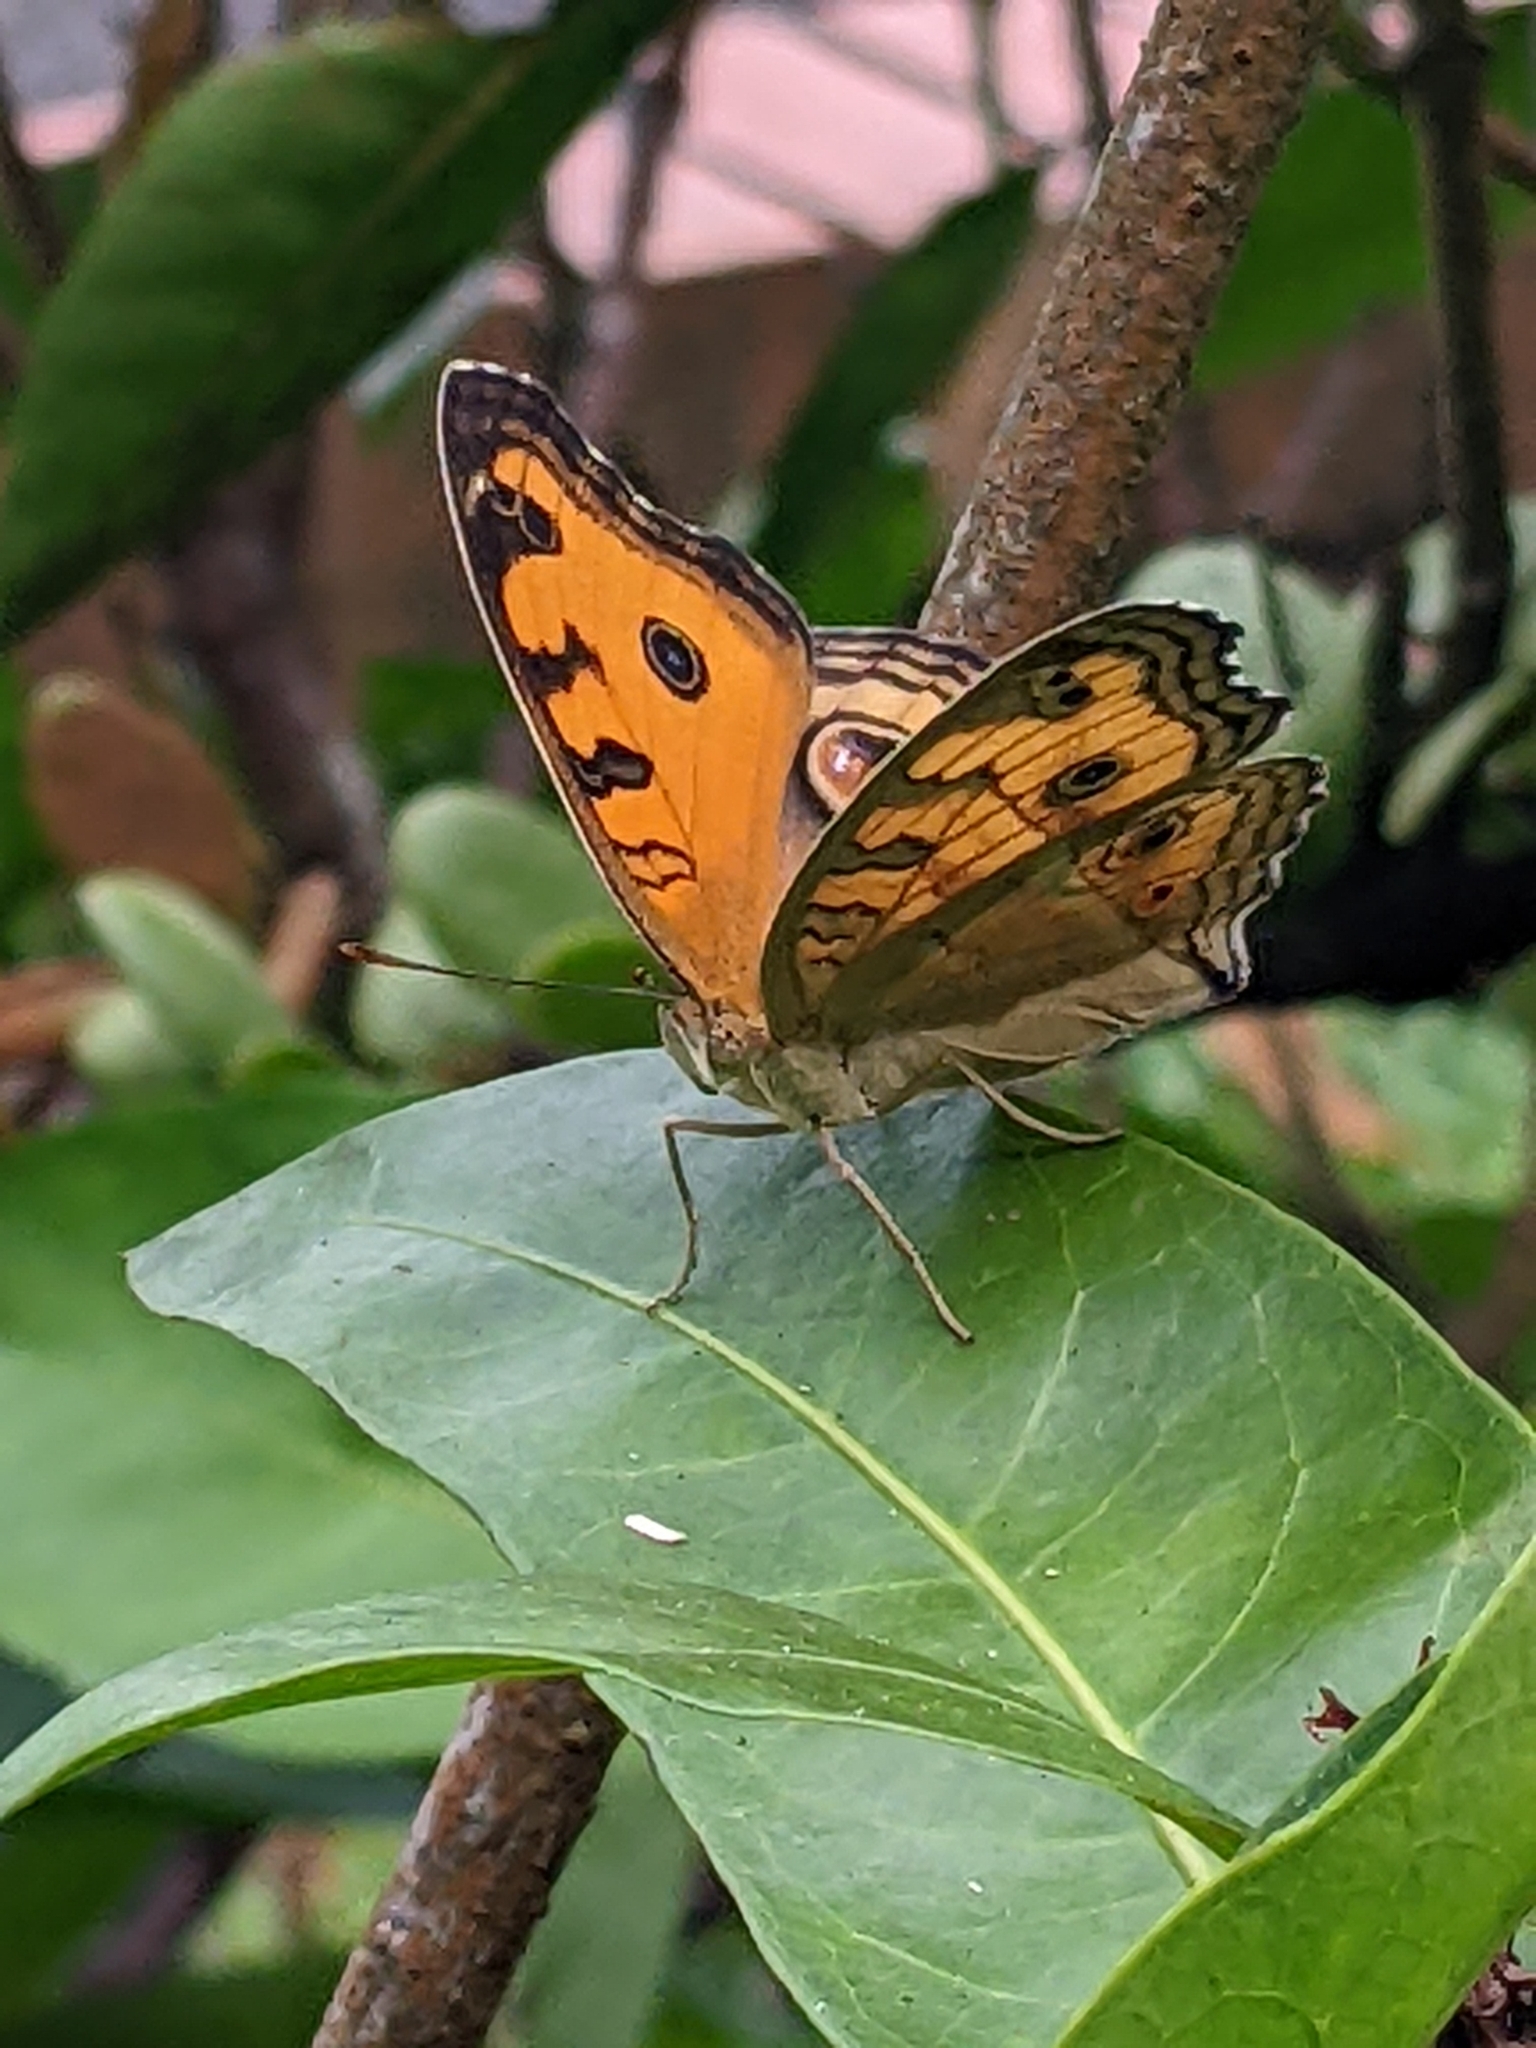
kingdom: Animalia
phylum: Arthropoda
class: Insecta
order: Lepidoptera
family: Nymphalidae
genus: Junonia
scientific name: Junonia almana
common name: Peacock pansy
